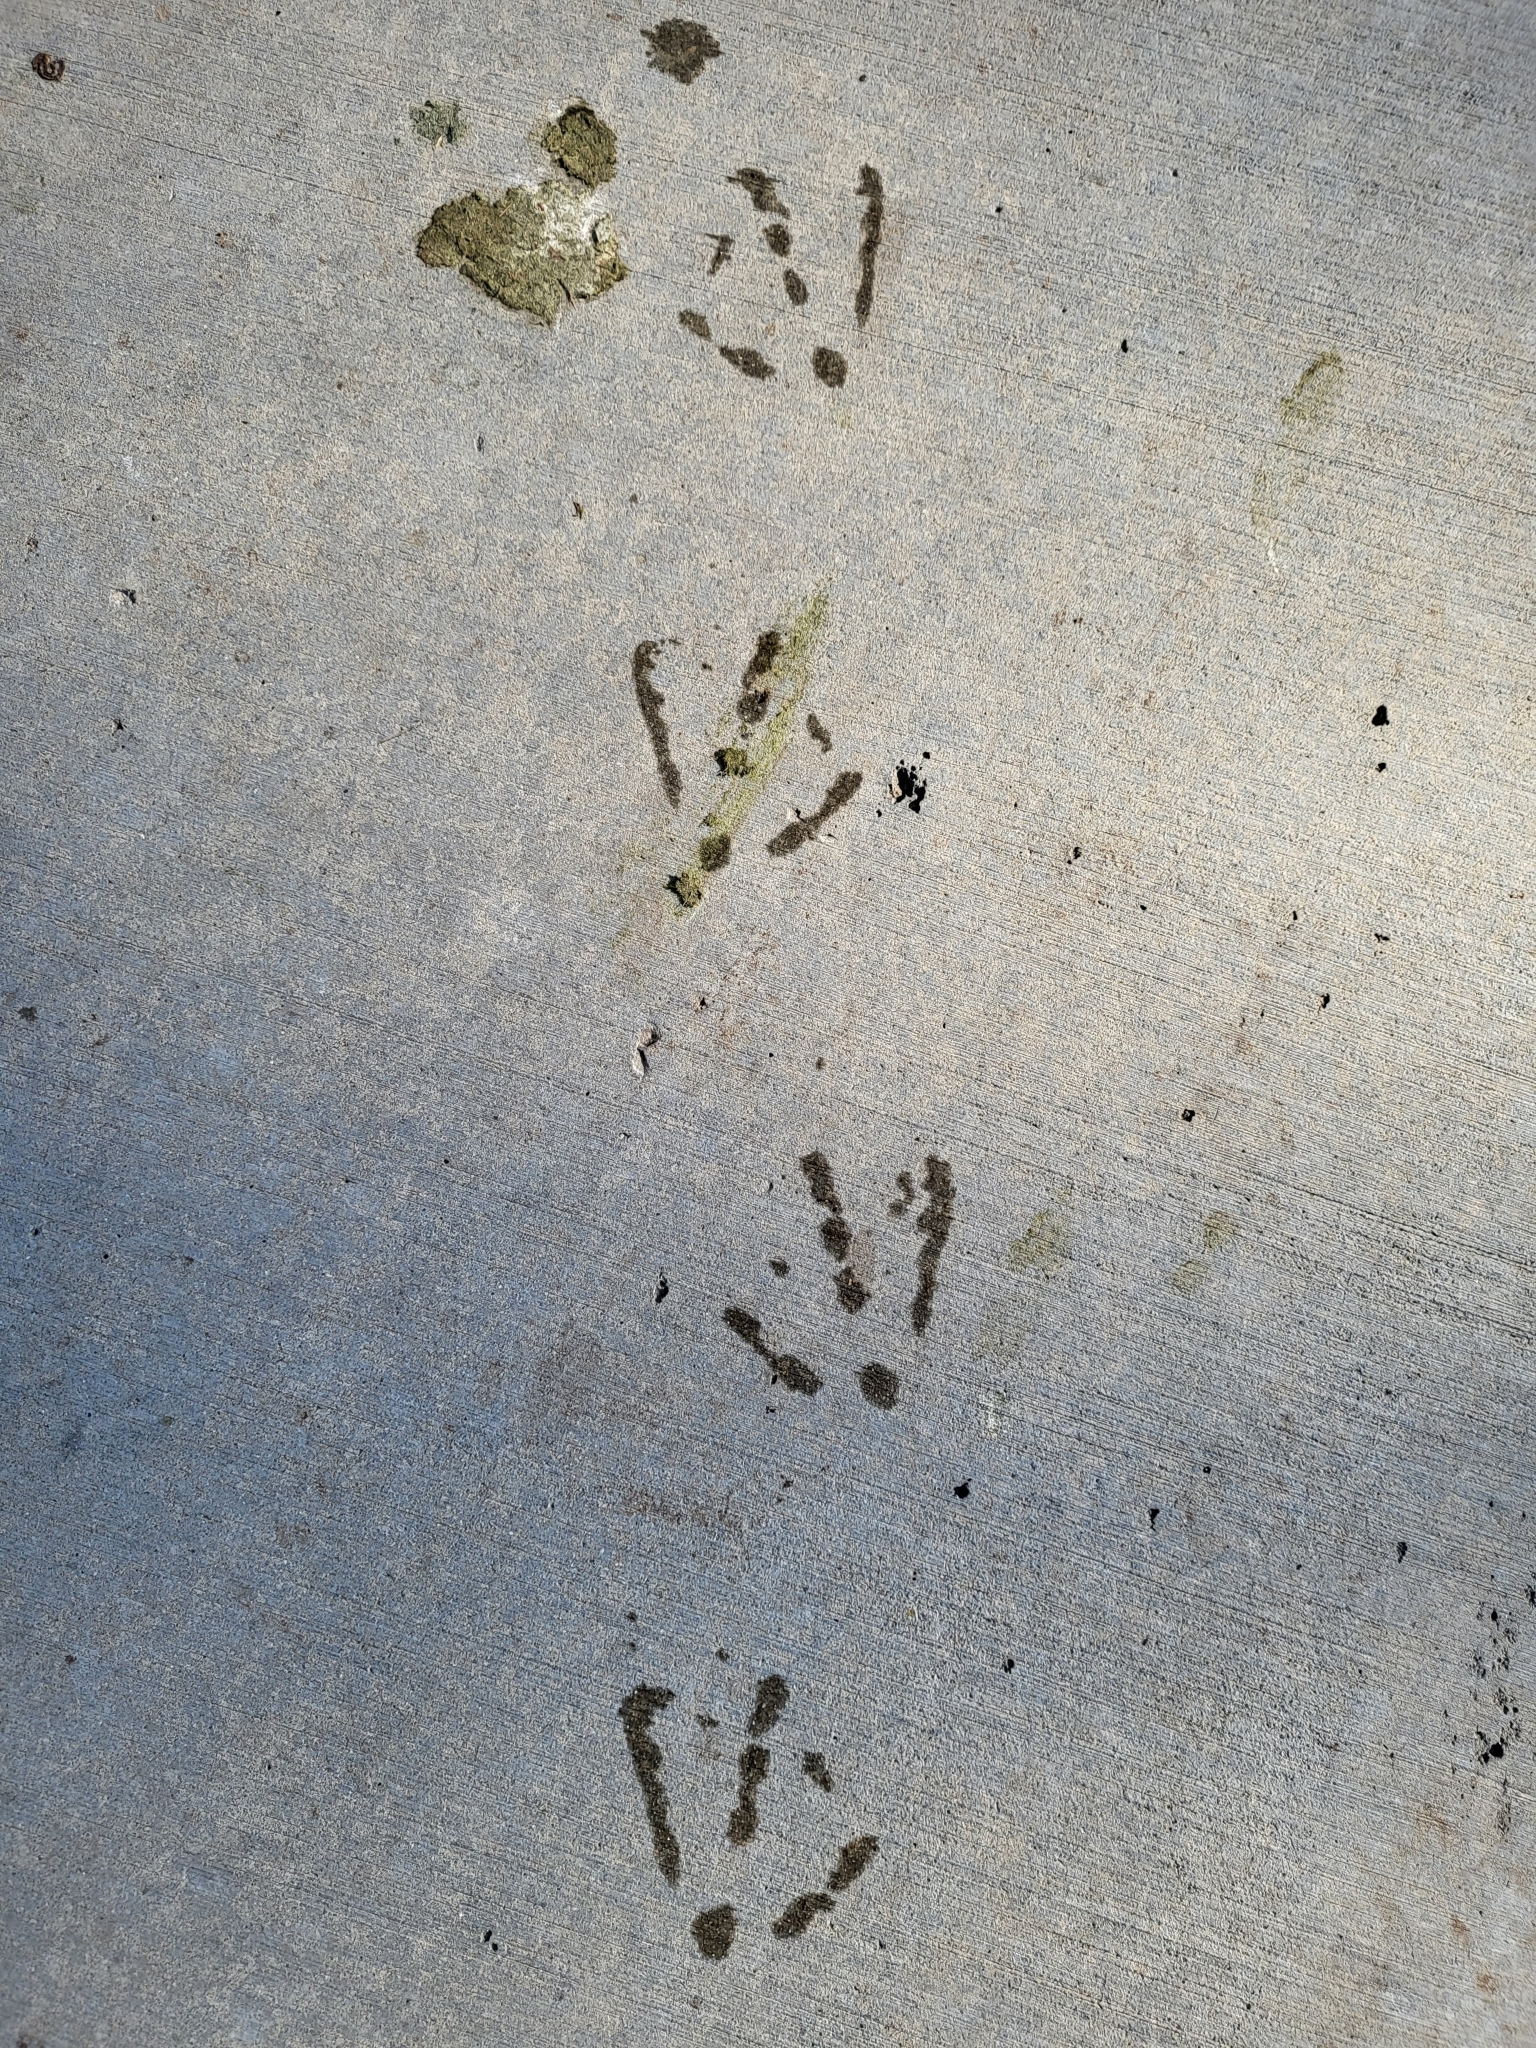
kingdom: Animalia
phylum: Chordata
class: Aves
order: Anseriformes
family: Anatidae
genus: Branta
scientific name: Branta canadensis
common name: Canada goose
